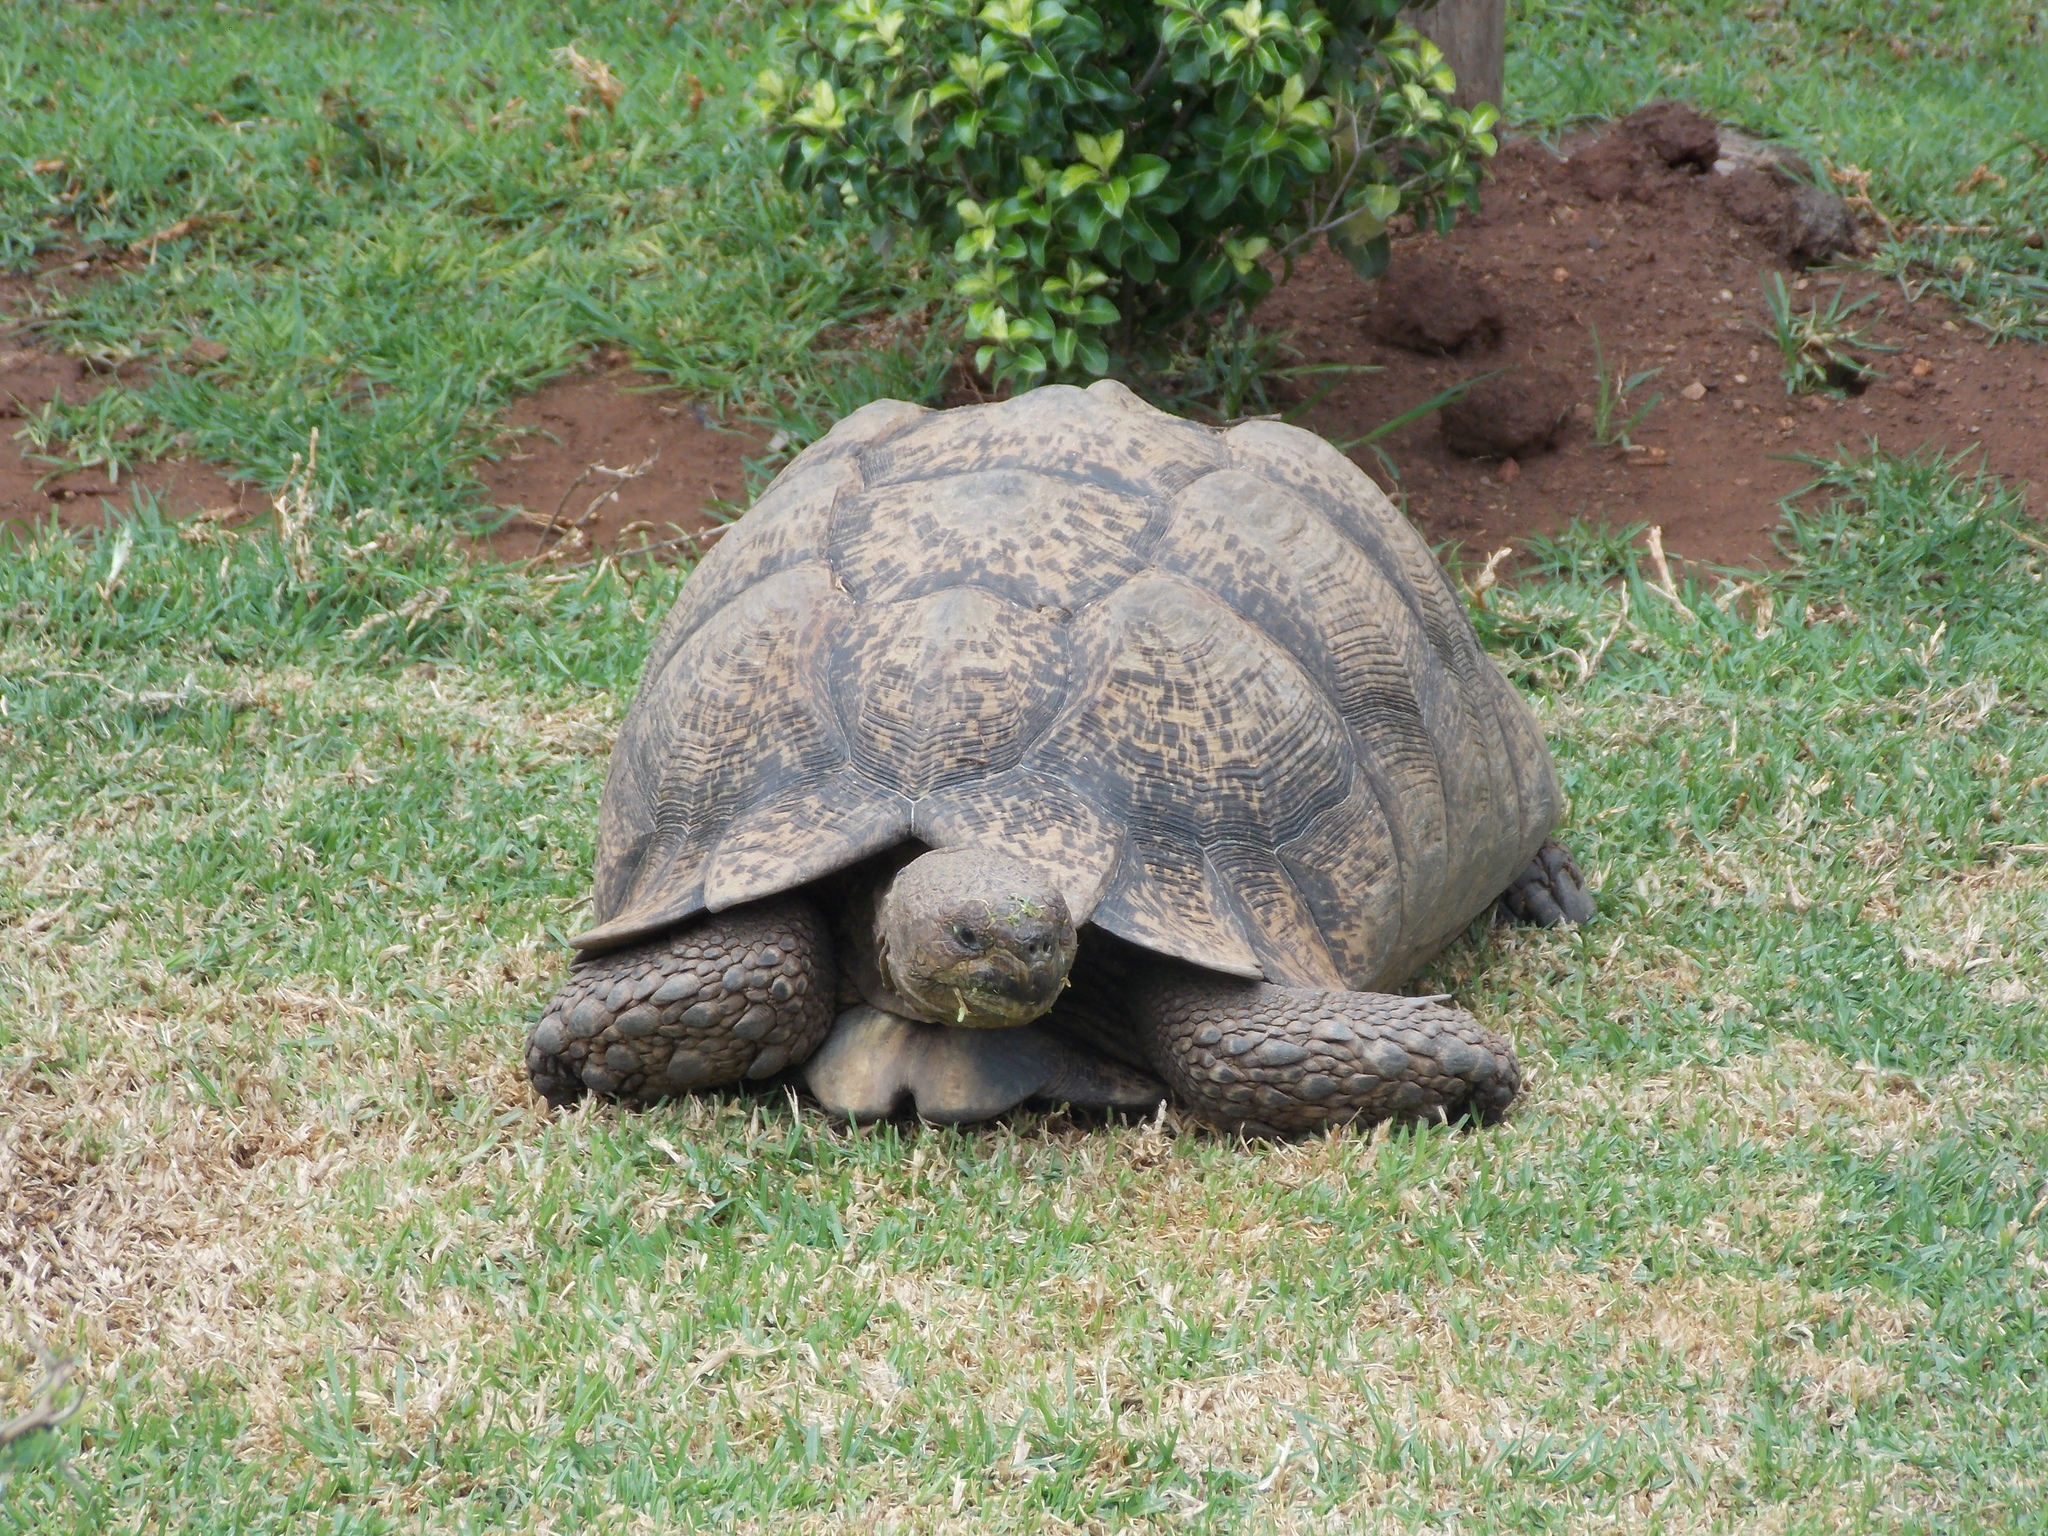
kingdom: Animalia
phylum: Chordata
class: Testudines
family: Testudinidae
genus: Stigmochelys
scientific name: Stigmochelys pardalis
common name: Leopard tortoise
